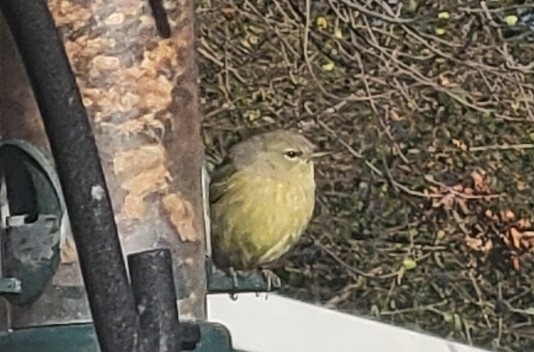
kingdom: Animalia
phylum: Chordata
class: Aves
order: Passeriformes
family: Parulidae
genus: Leiothlypis
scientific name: Leiothlypis celata
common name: Orange-crowned warbler
